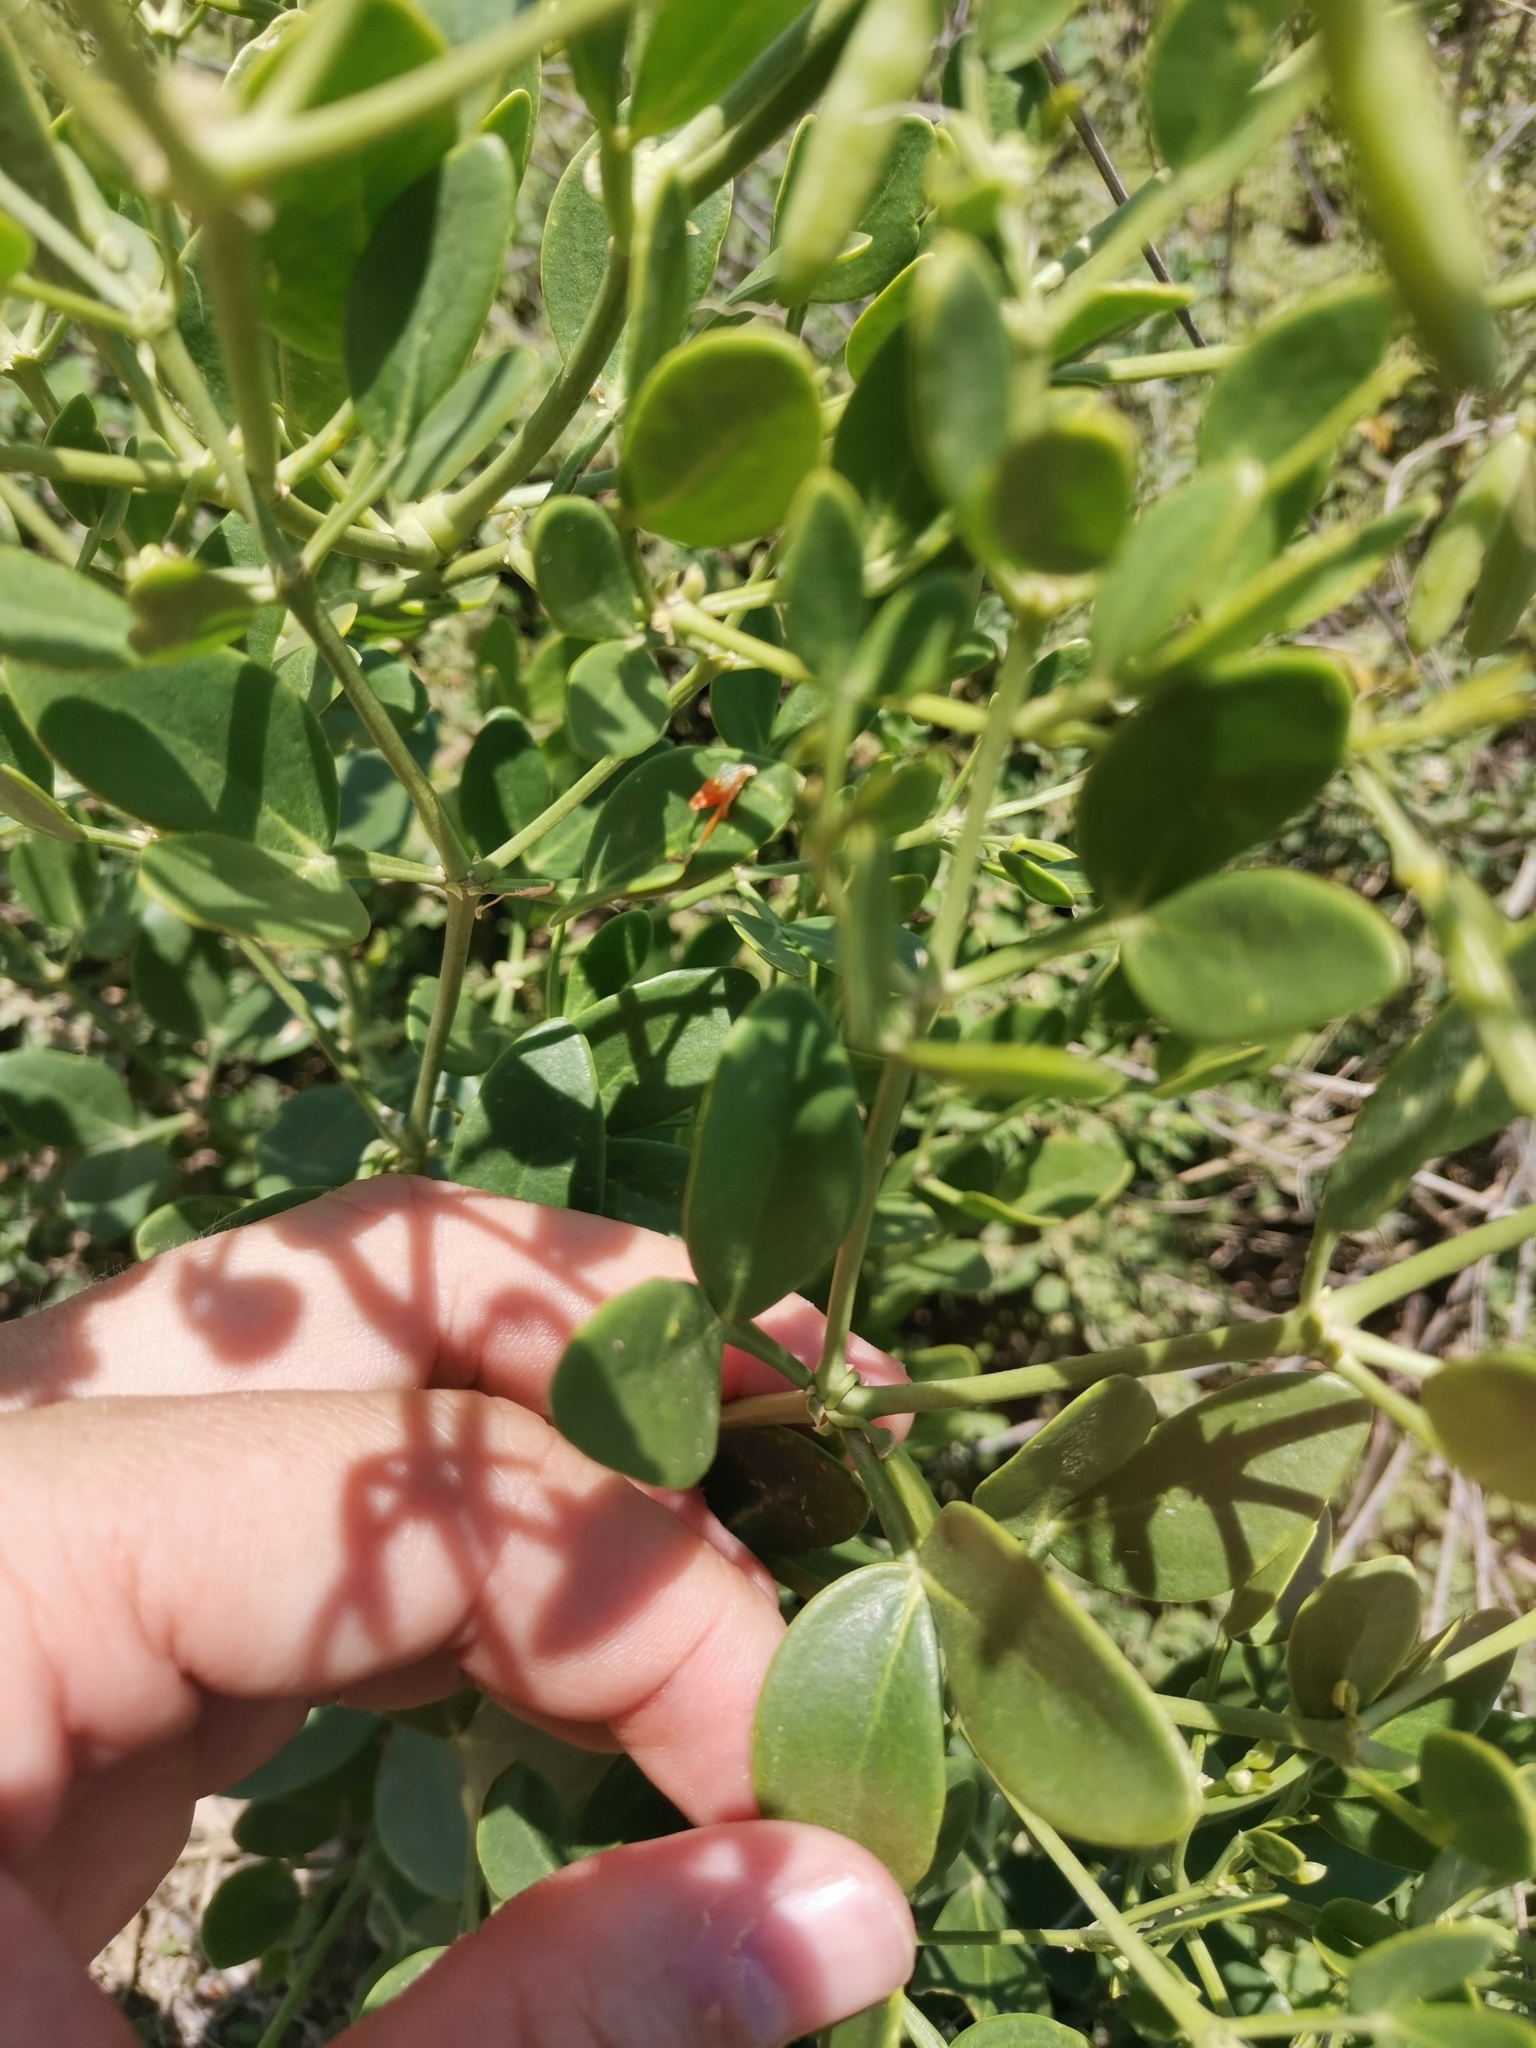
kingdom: Plantae
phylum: Tracheophyta
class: Magnoliopsida
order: Zygophyllales
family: Zygophyllaceae
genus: Zygophyllum
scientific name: Zygophyllum fabago
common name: Syrian beancaper
